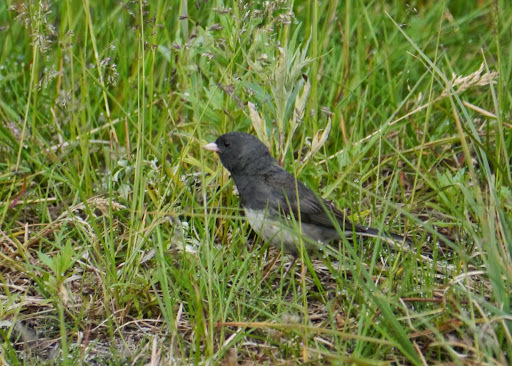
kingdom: Animalia
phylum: Chordata
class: Aves
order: Passeriformes
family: Passerellidae
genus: Junco
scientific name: Junco hyemalis
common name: Dark-eyed junco
